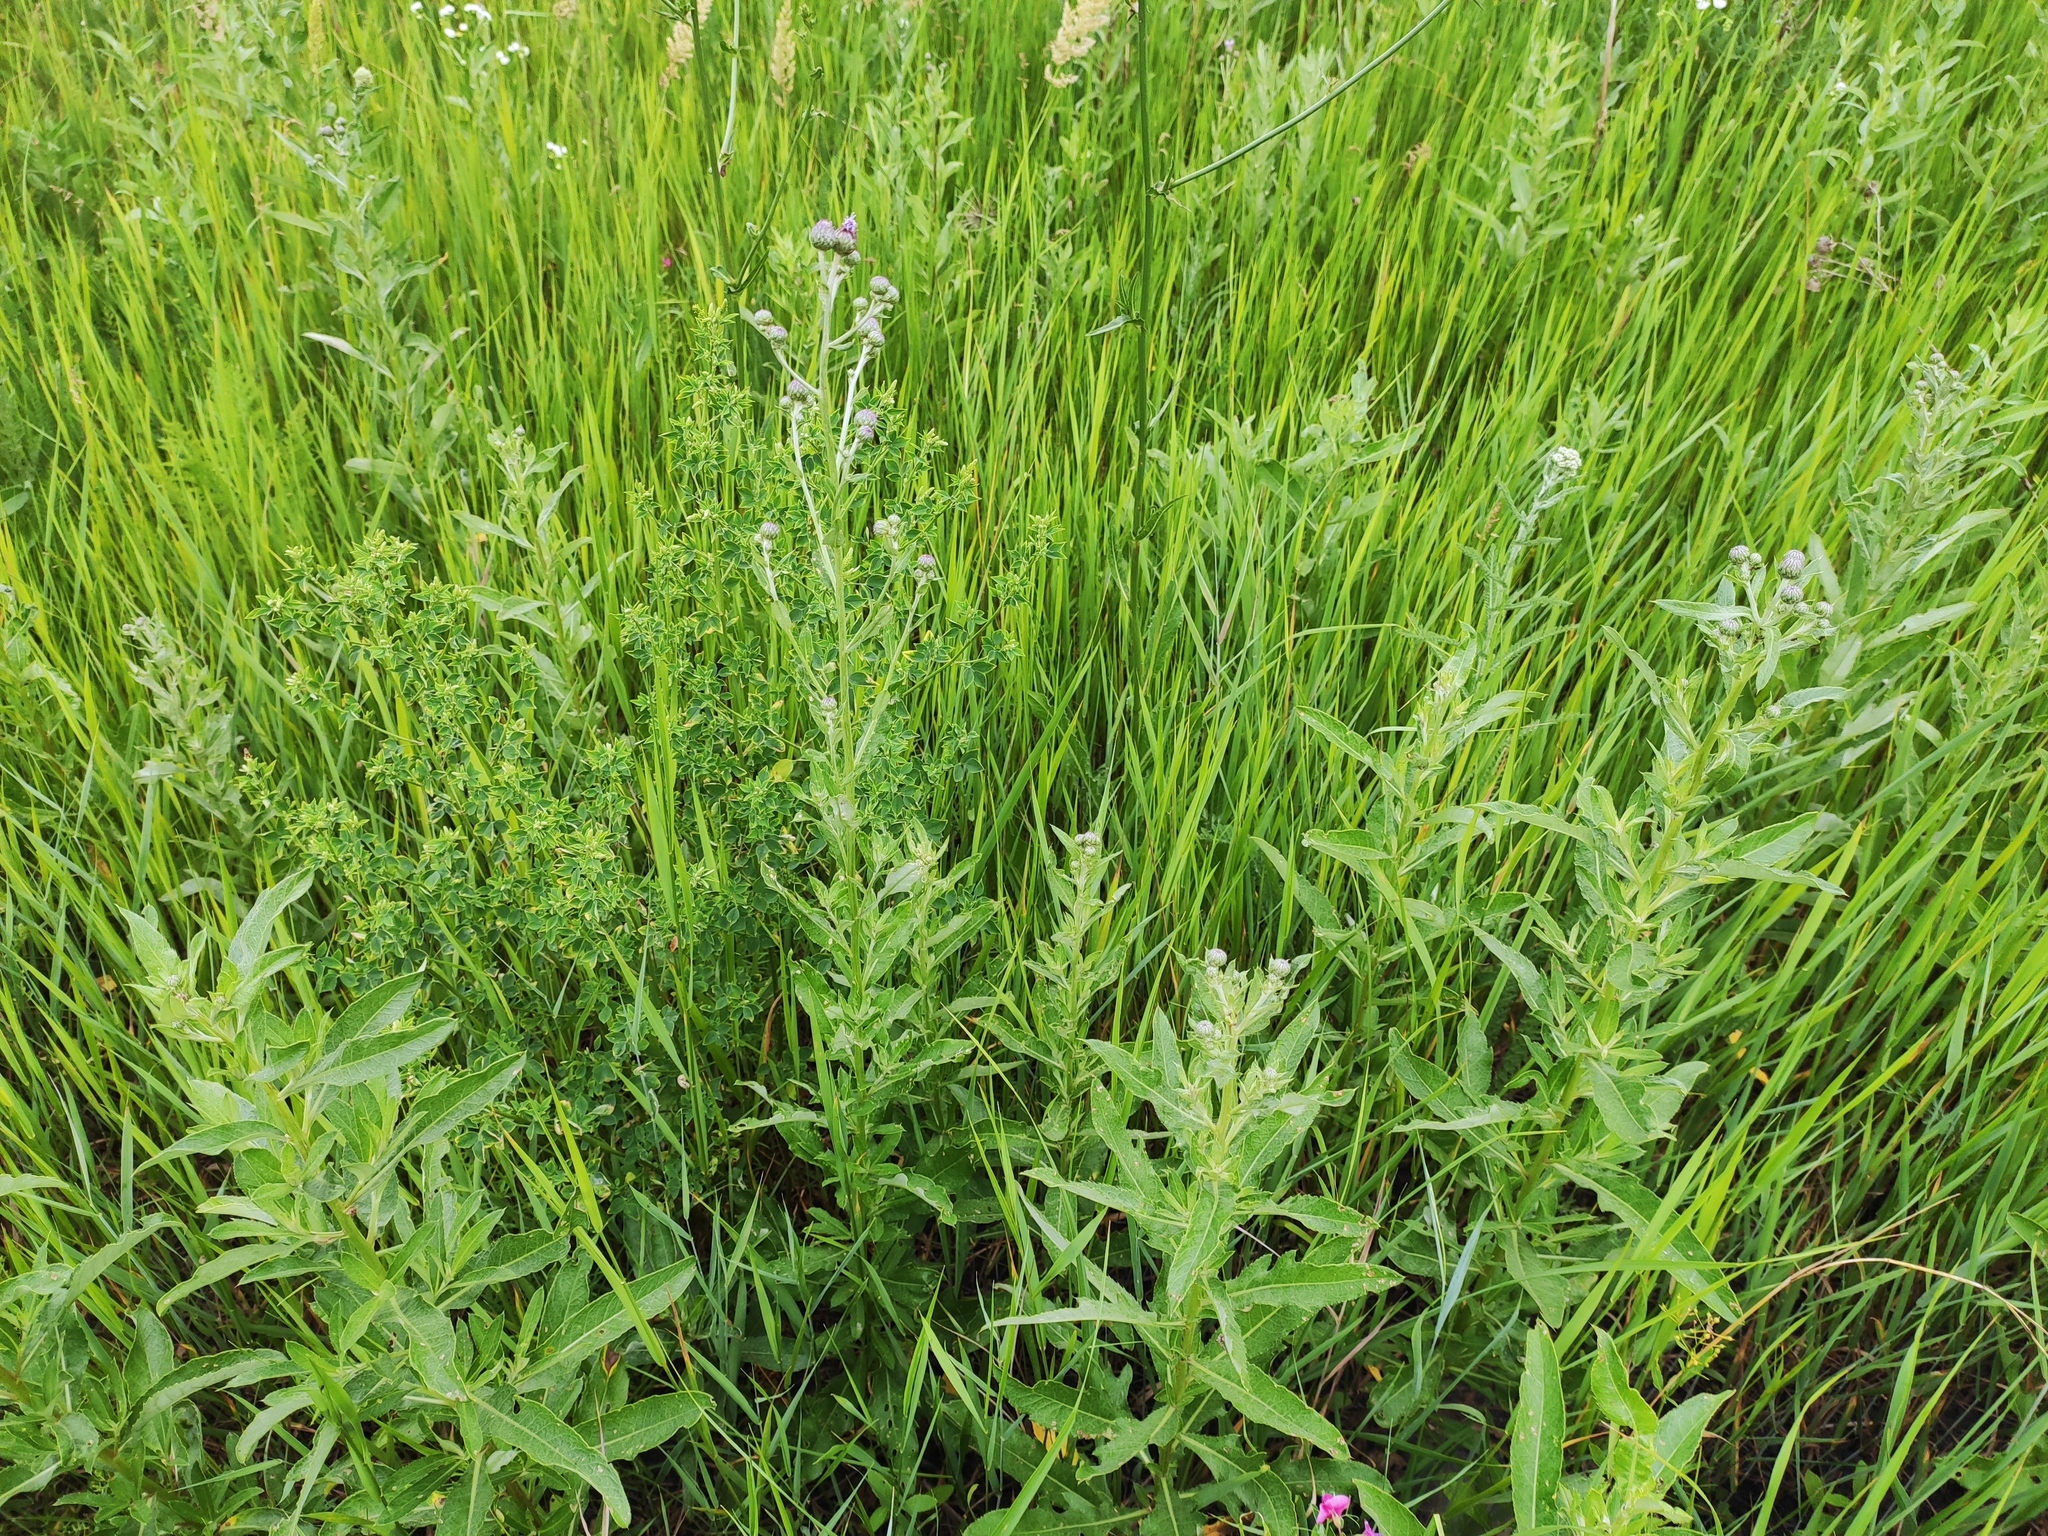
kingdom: Plantae
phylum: Tracheophyta
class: Magnoliopsida
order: Asterales
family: Asteraceae
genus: Cirsium
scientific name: Cirsium arvense
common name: Creeping thistle
